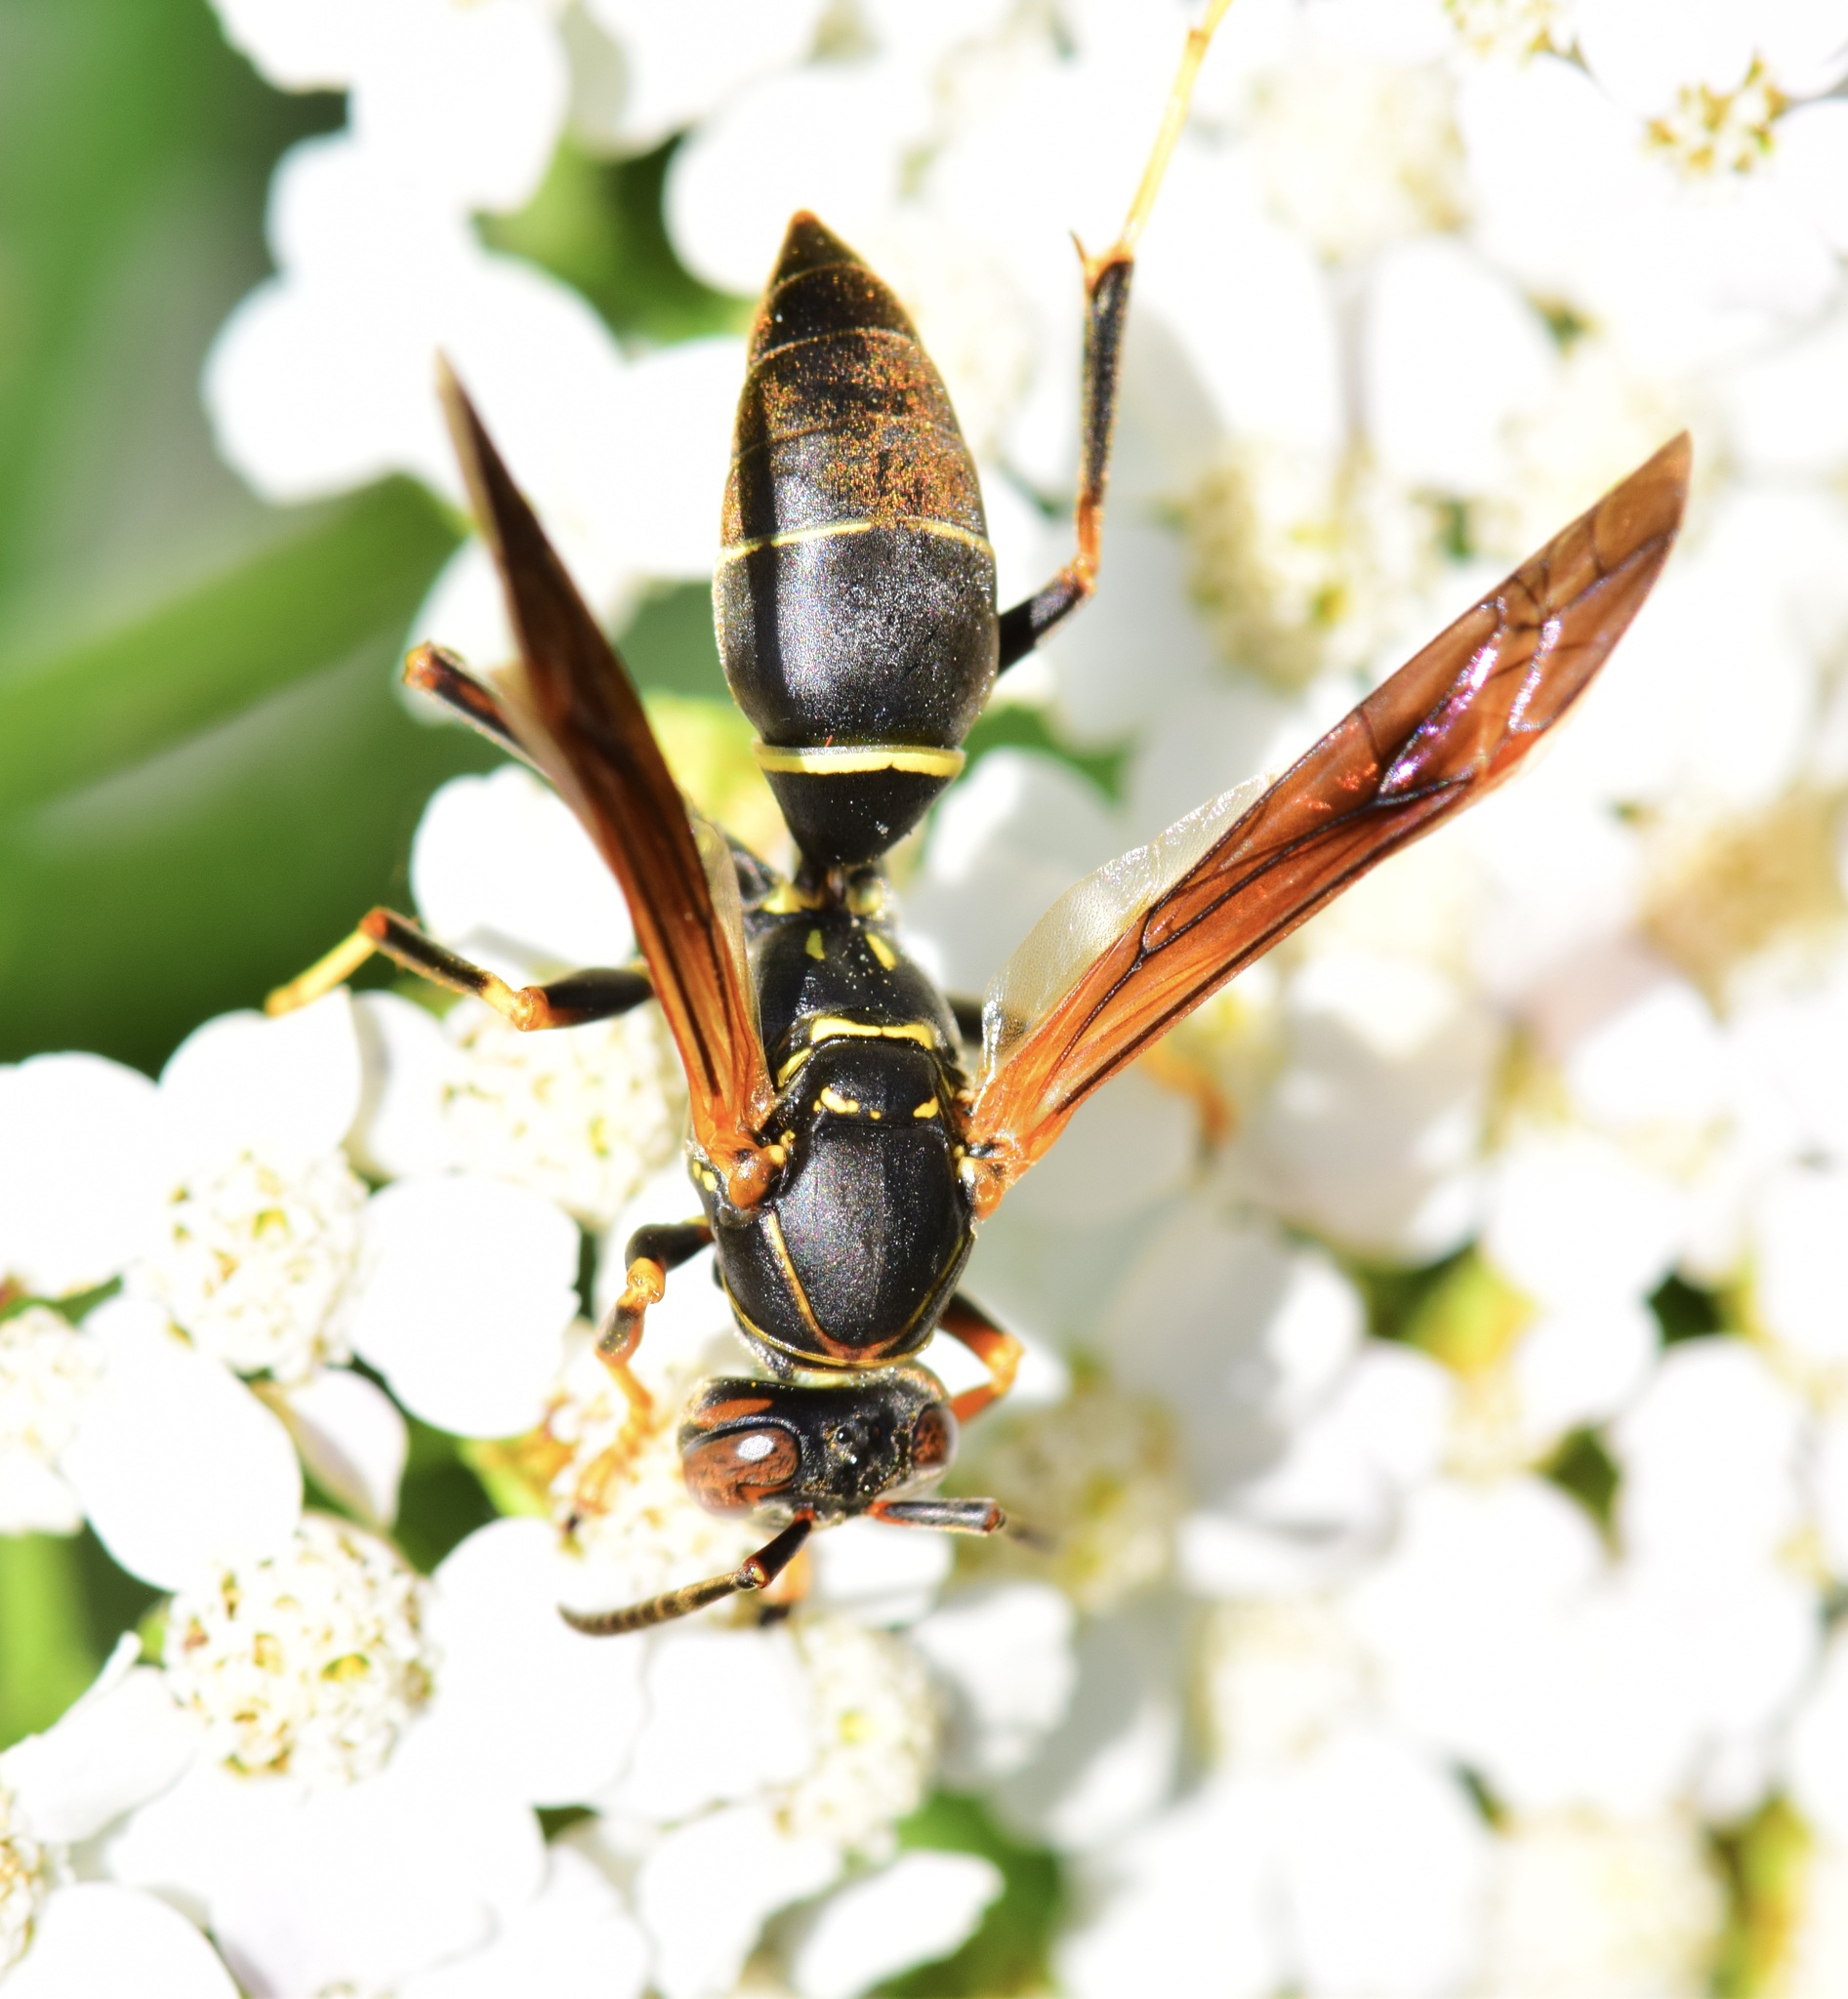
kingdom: Animalia
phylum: Arthropoda
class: Insecta
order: Hymenoptera
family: Eumenidae
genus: Polistes
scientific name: Polistes fuscatus
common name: Dark paper wasp
